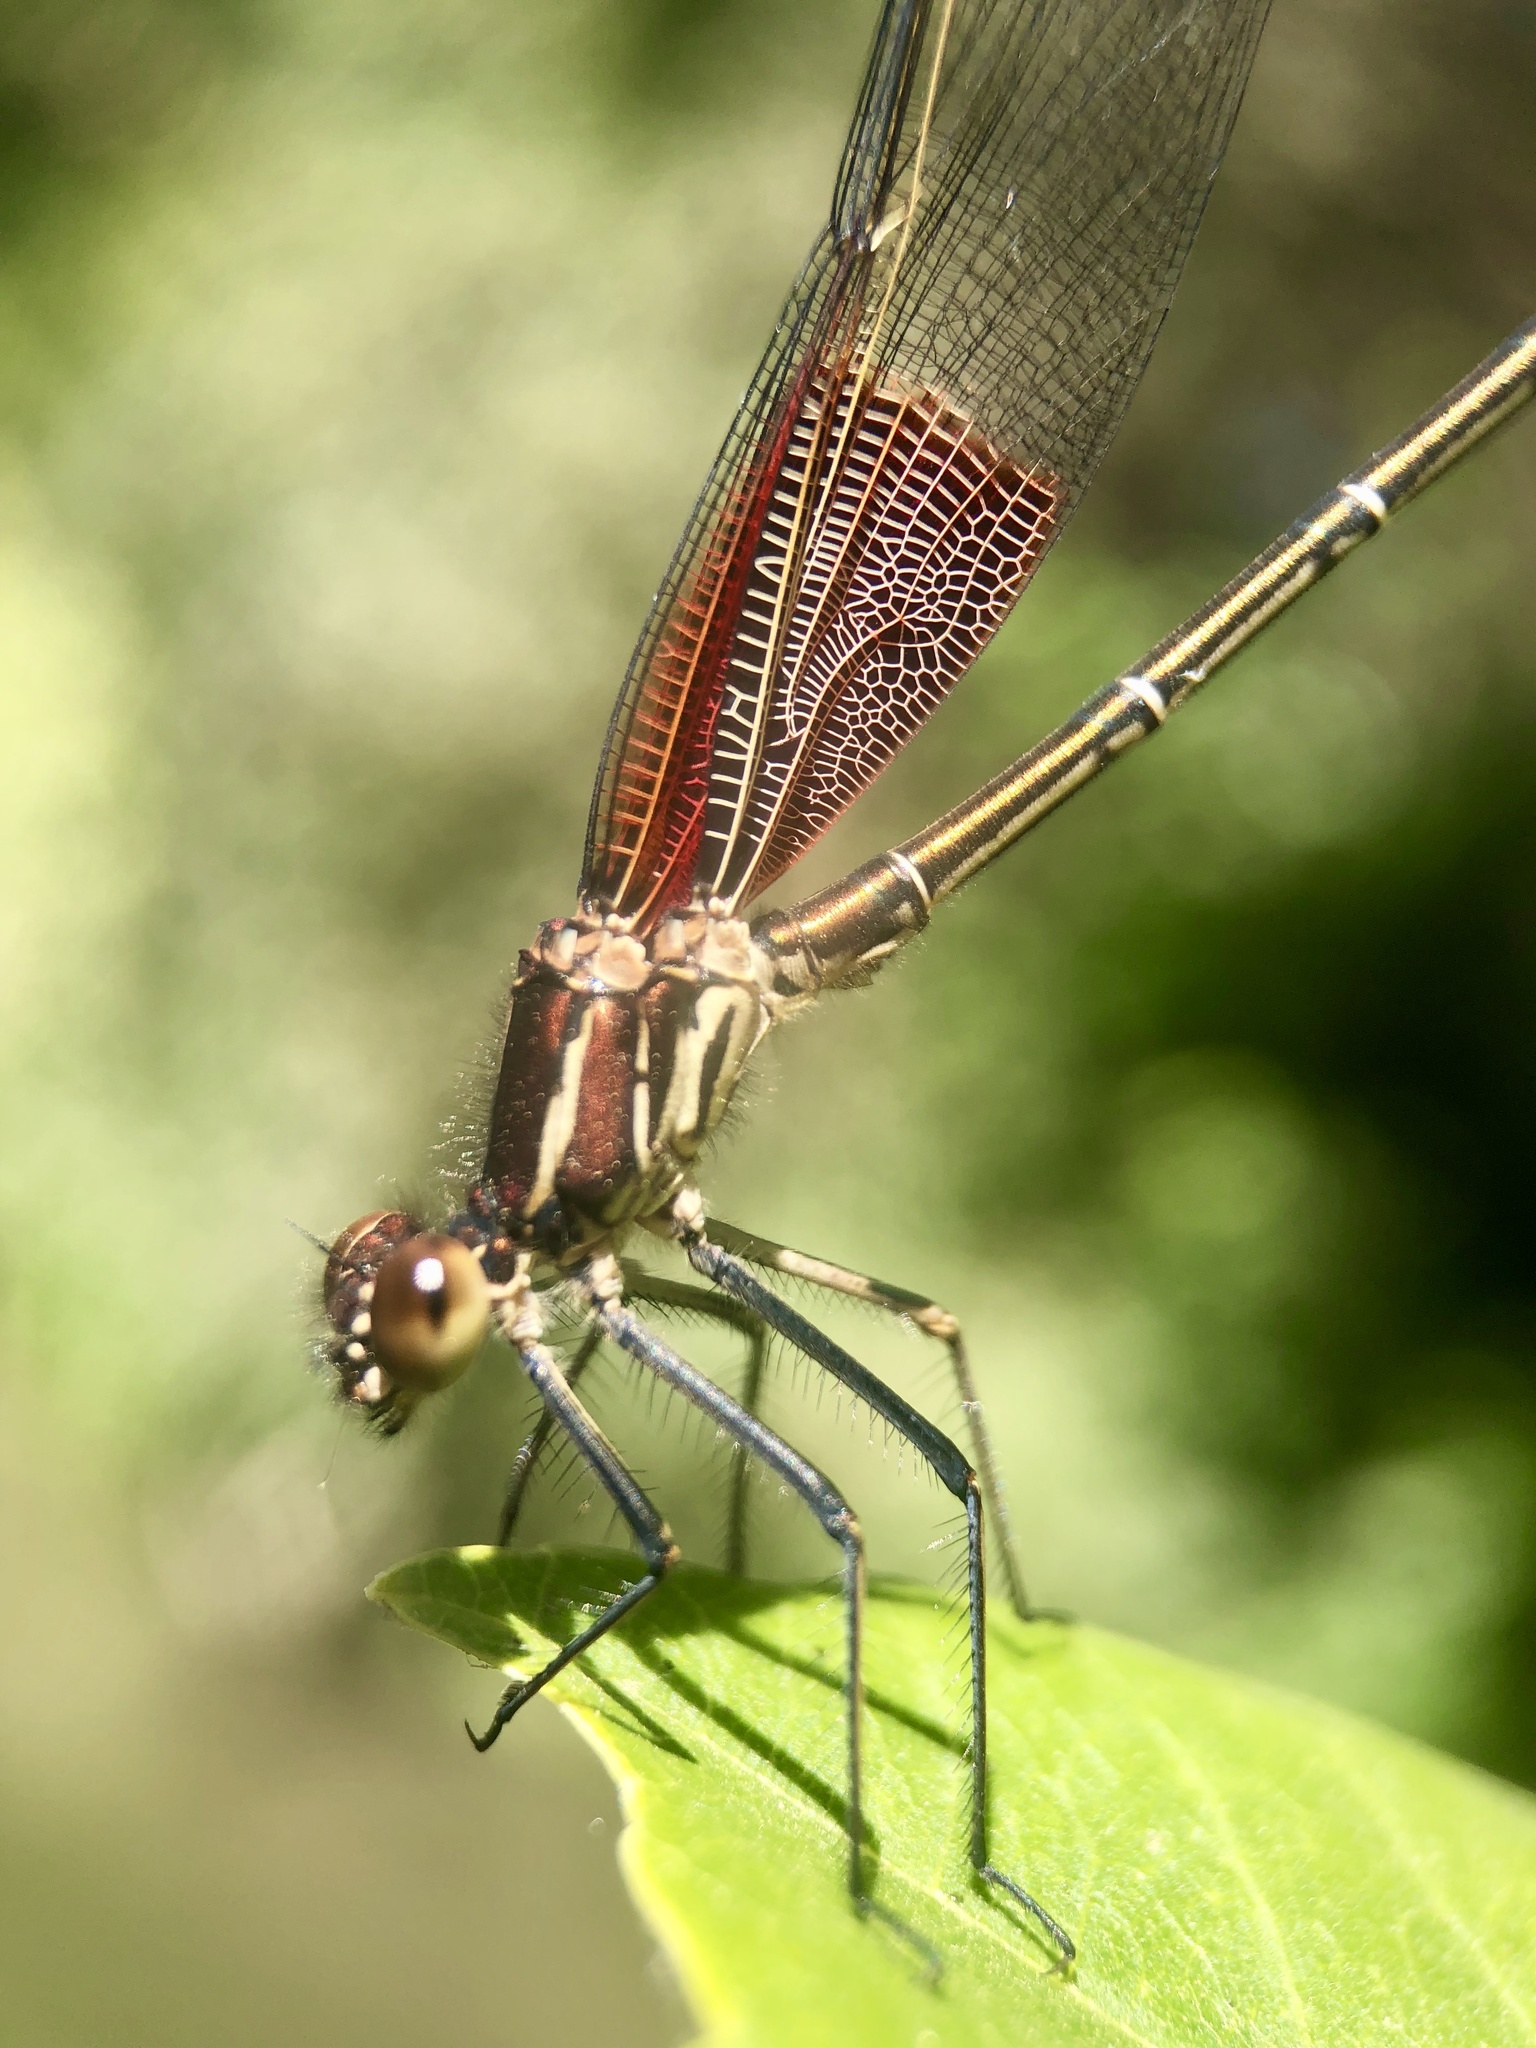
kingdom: Animalia
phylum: Arthropoda
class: Insecta
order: Odonata
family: Calopterygidae
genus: Hetaerina
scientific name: Hetaerina americana
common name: American rubyspot
